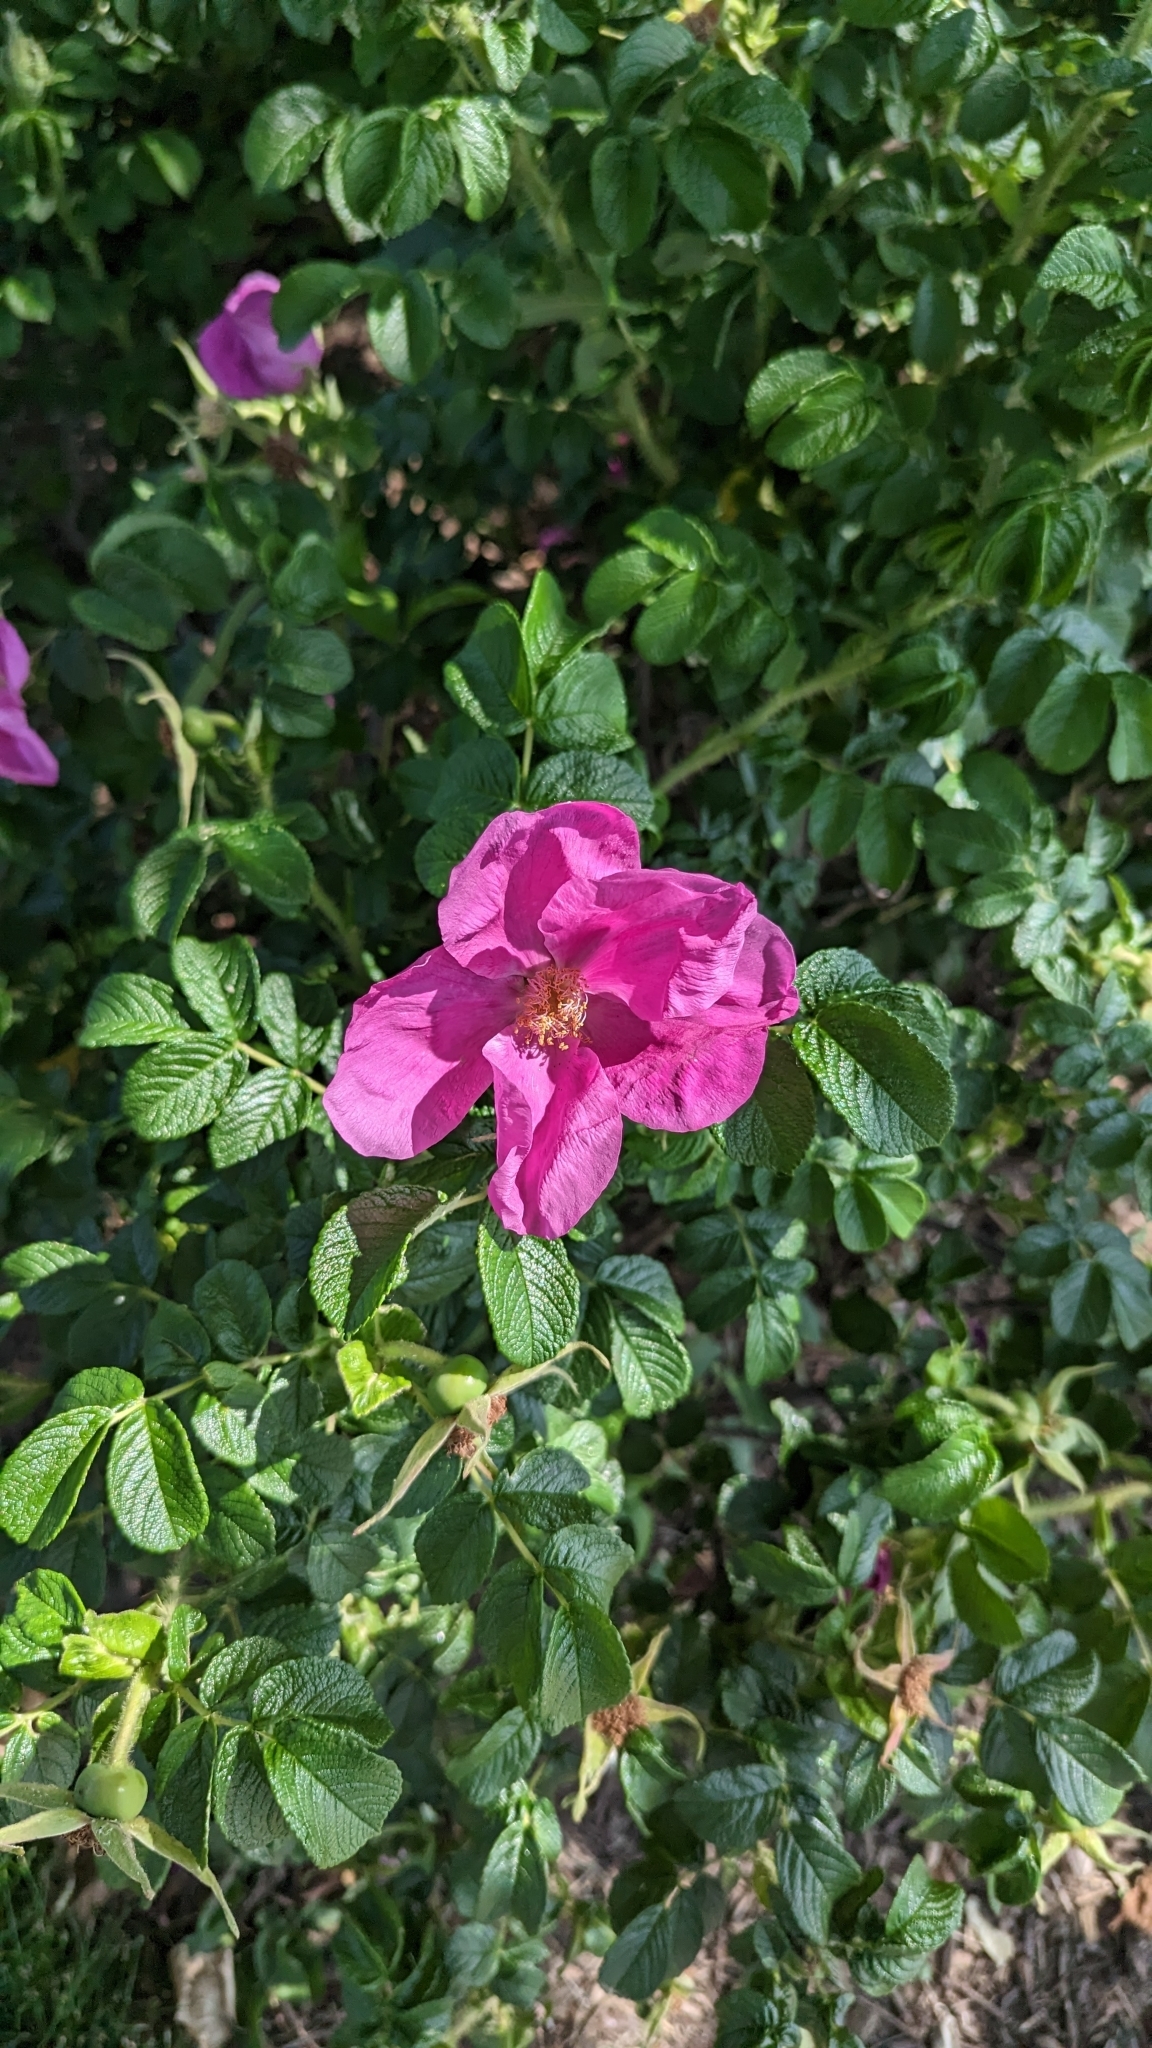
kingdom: Plantae
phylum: Tracheophyta
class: Magnoliopsida
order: Rosales
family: Rosaceae
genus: Rosa
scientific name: Rosa rugosa
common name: Japanese rose
